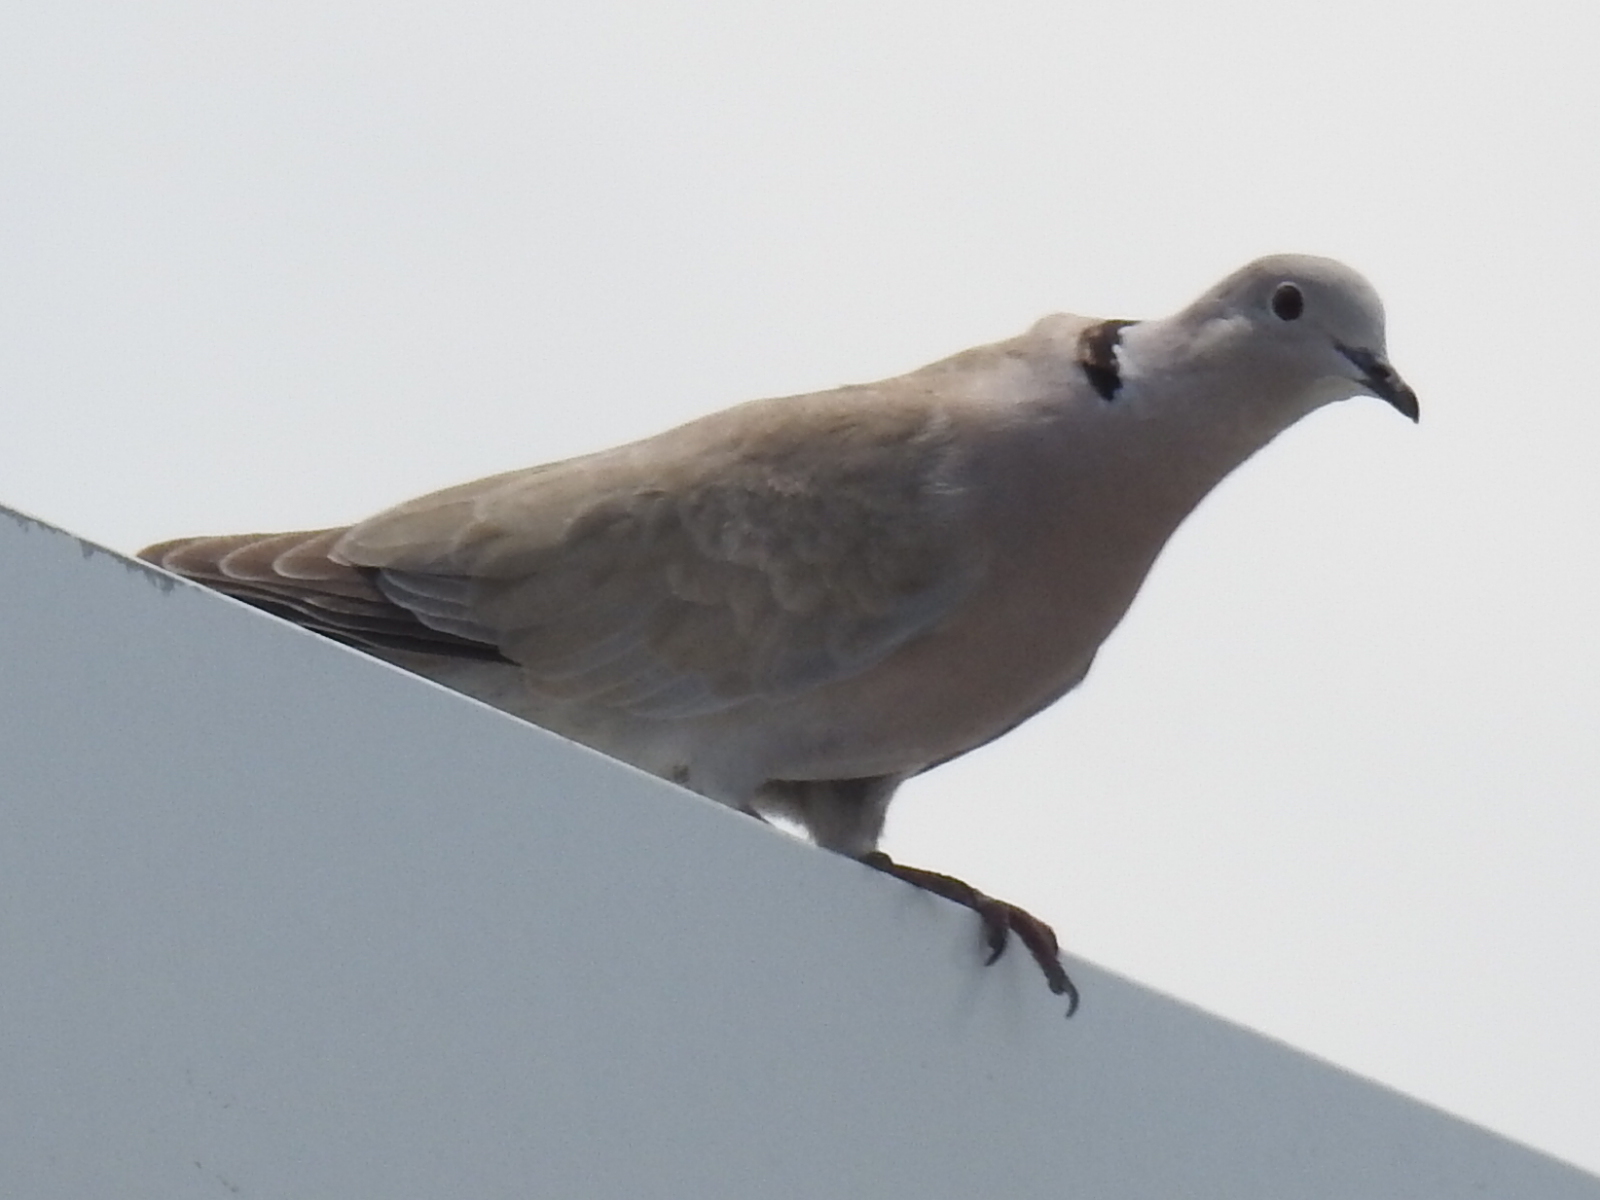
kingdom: Animalia
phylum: Chordata
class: Aves
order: Columbiformes
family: Columbidae
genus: Streptopelia
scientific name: Streptopelia decaocto
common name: Eurasian collared dove
